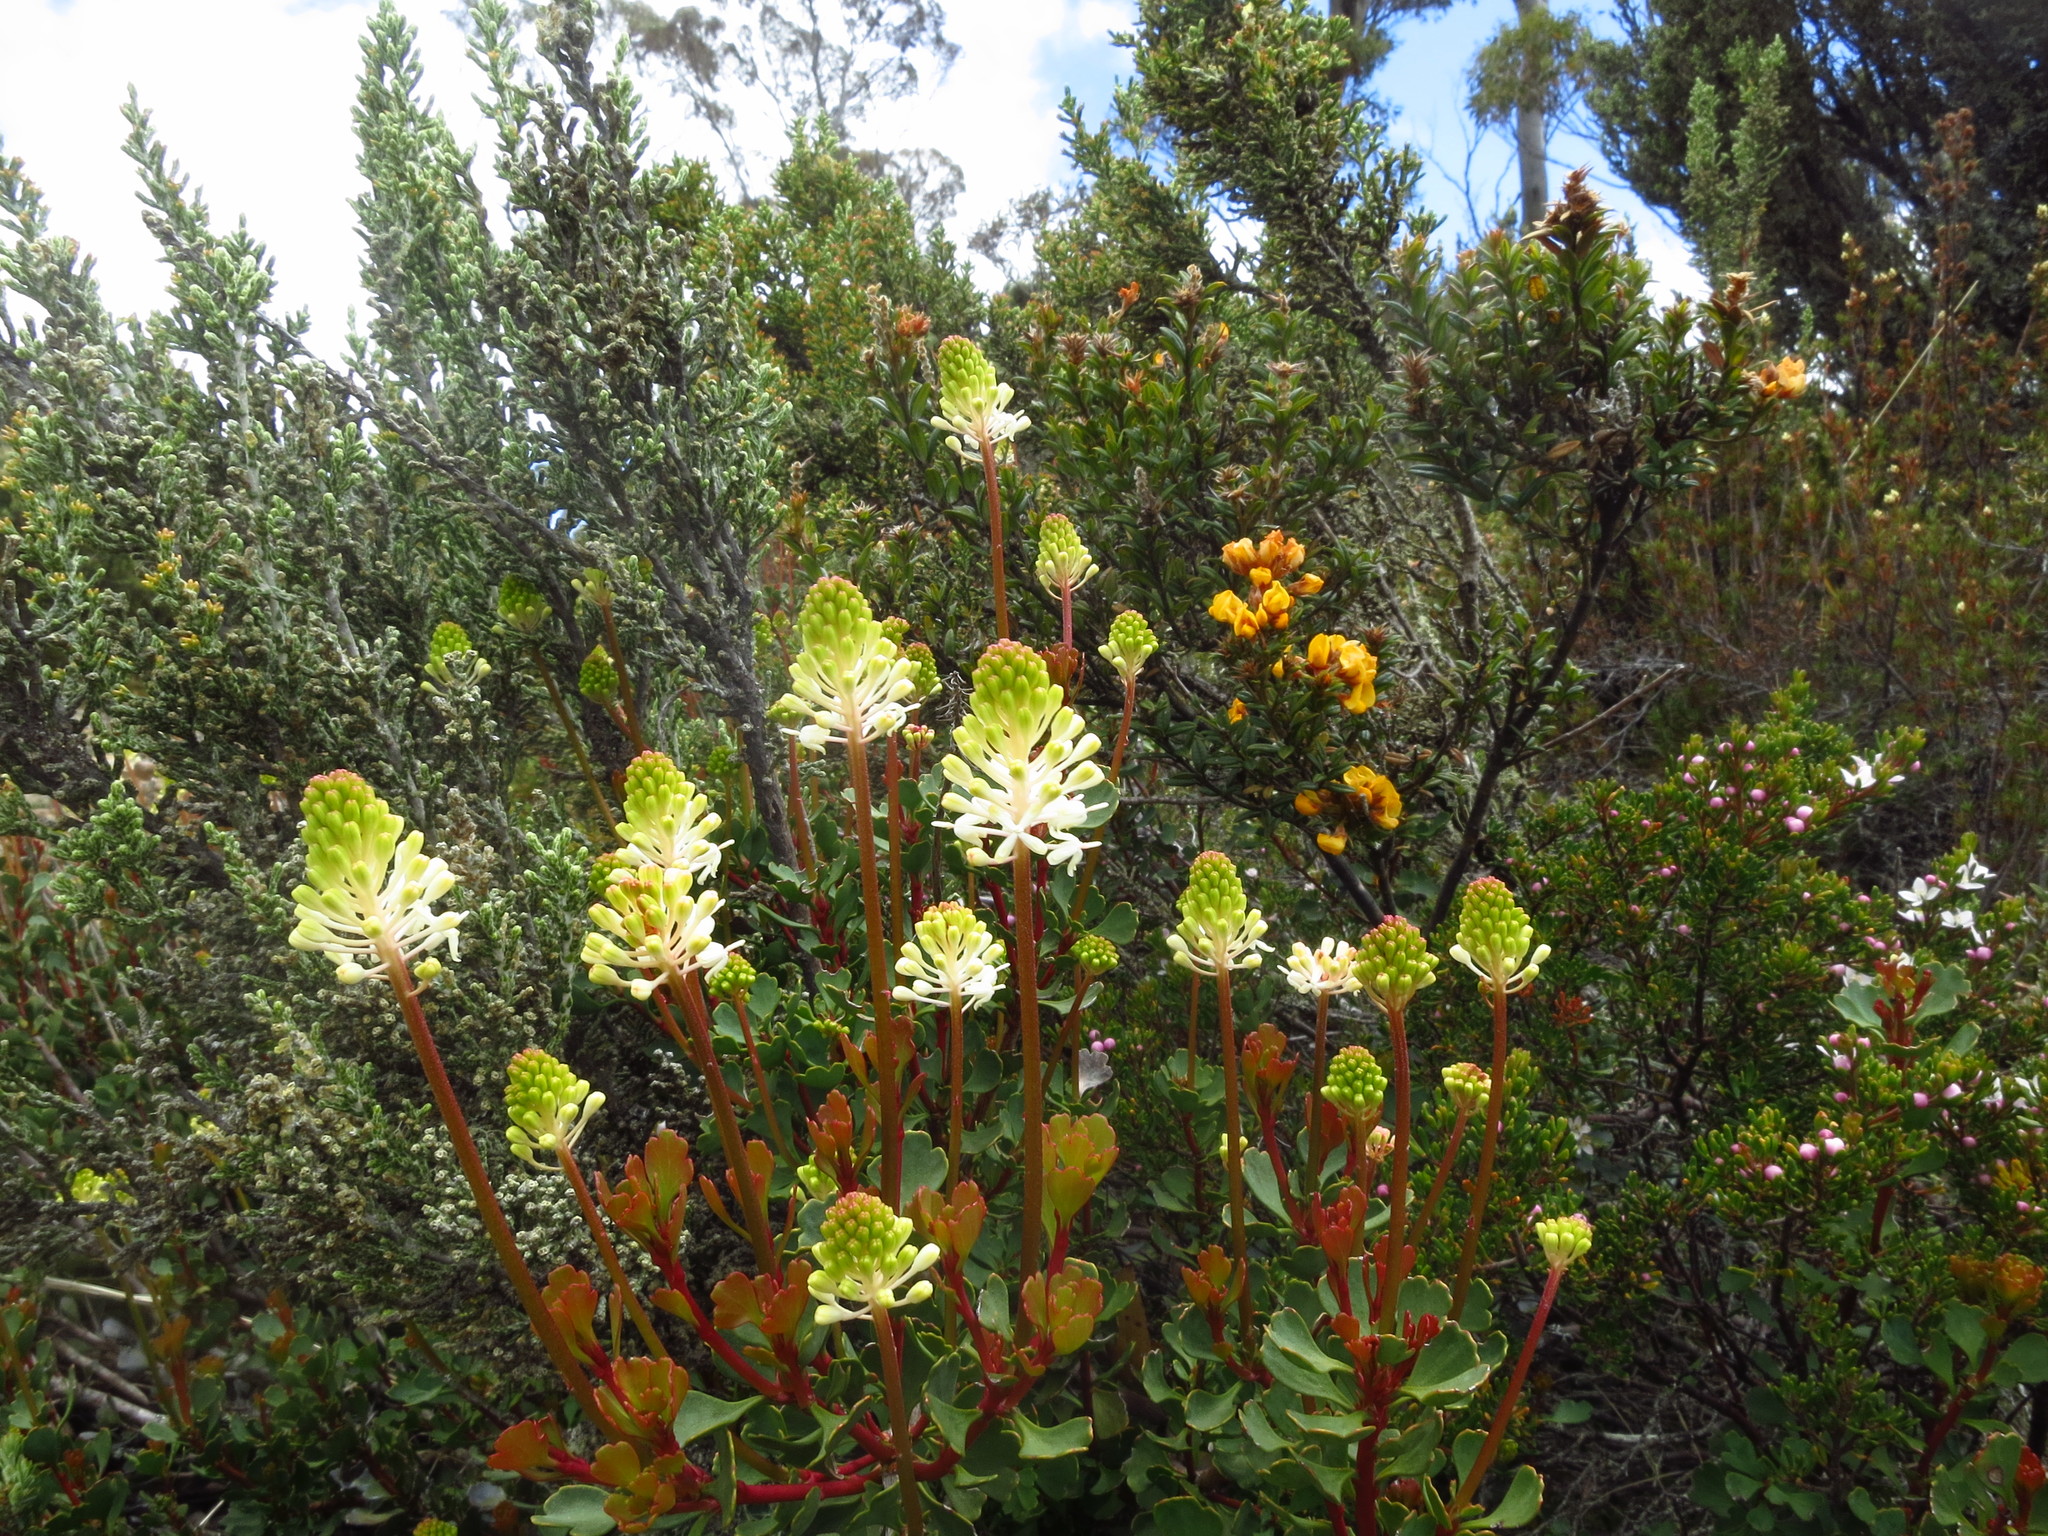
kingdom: Plantae
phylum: Tracheophyta
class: Magnoliopsida
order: Proteales
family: Proteaceae
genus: Bellendena
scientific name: Bellendena montana
